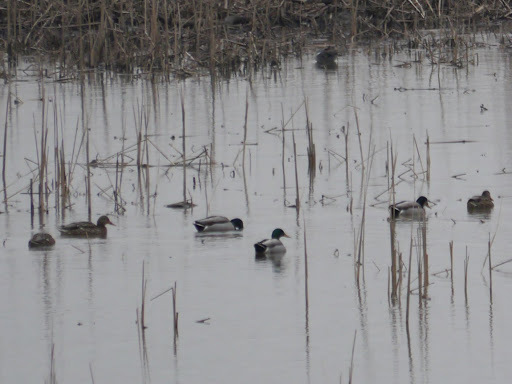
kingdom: Animalia
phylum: Chordata
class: Aves
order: Anseriformes
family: Anatidae
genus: Anas
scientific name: Anas platyrhynchos
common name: Mallard
